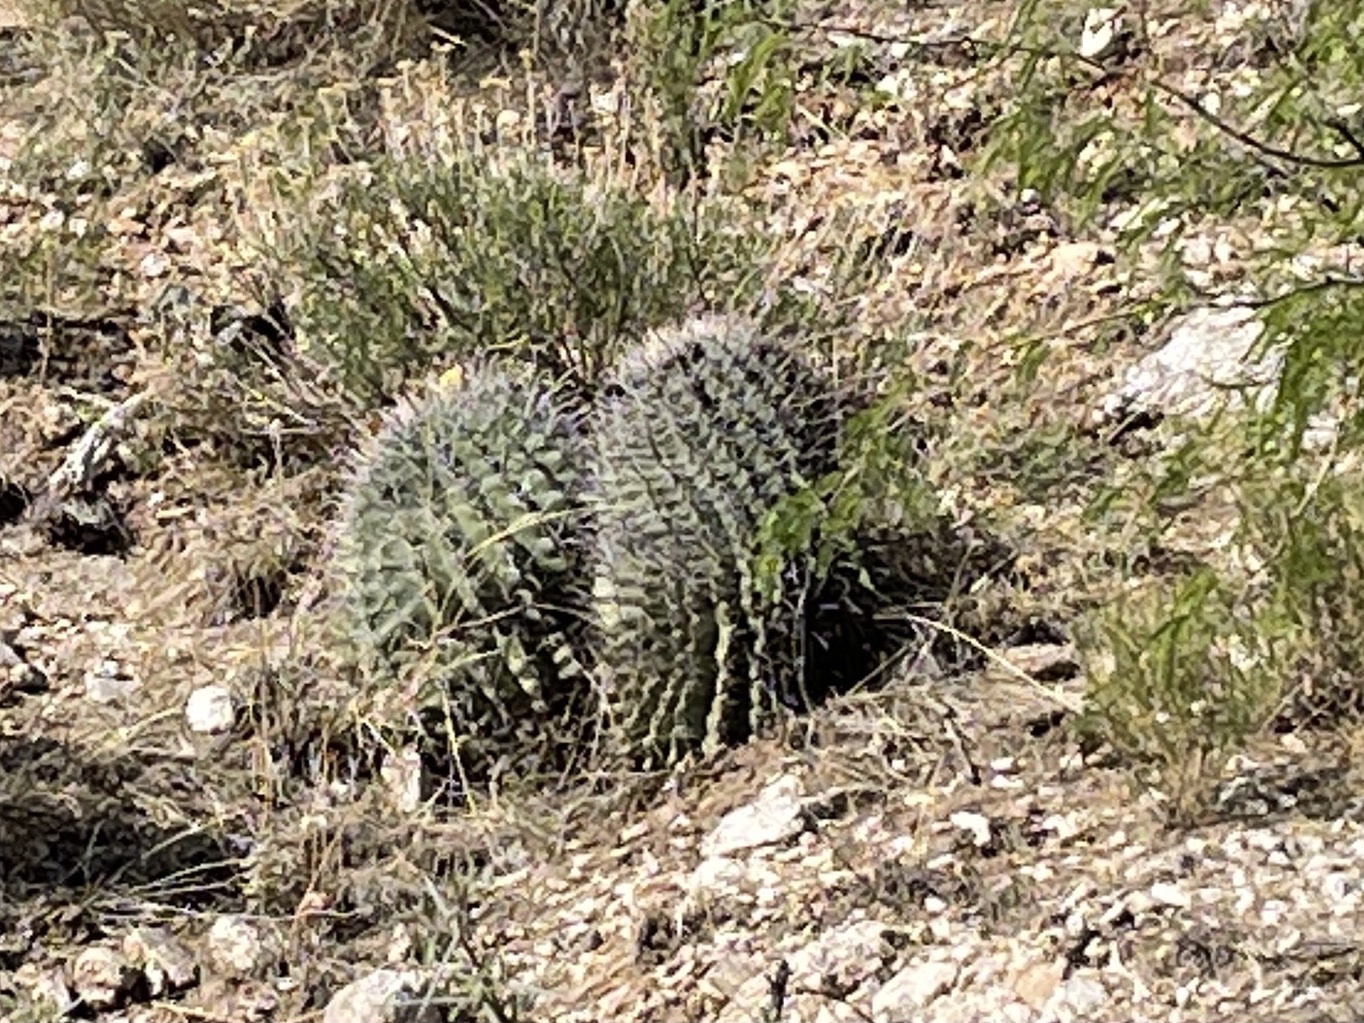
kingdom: Plantae
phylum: Tracheophyta
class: Magnoliopsida
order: Caryophyllales
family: Cactaceae
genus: Ferocactus
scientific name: Ferocactus wislizeni
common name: Candy barrel cactus
